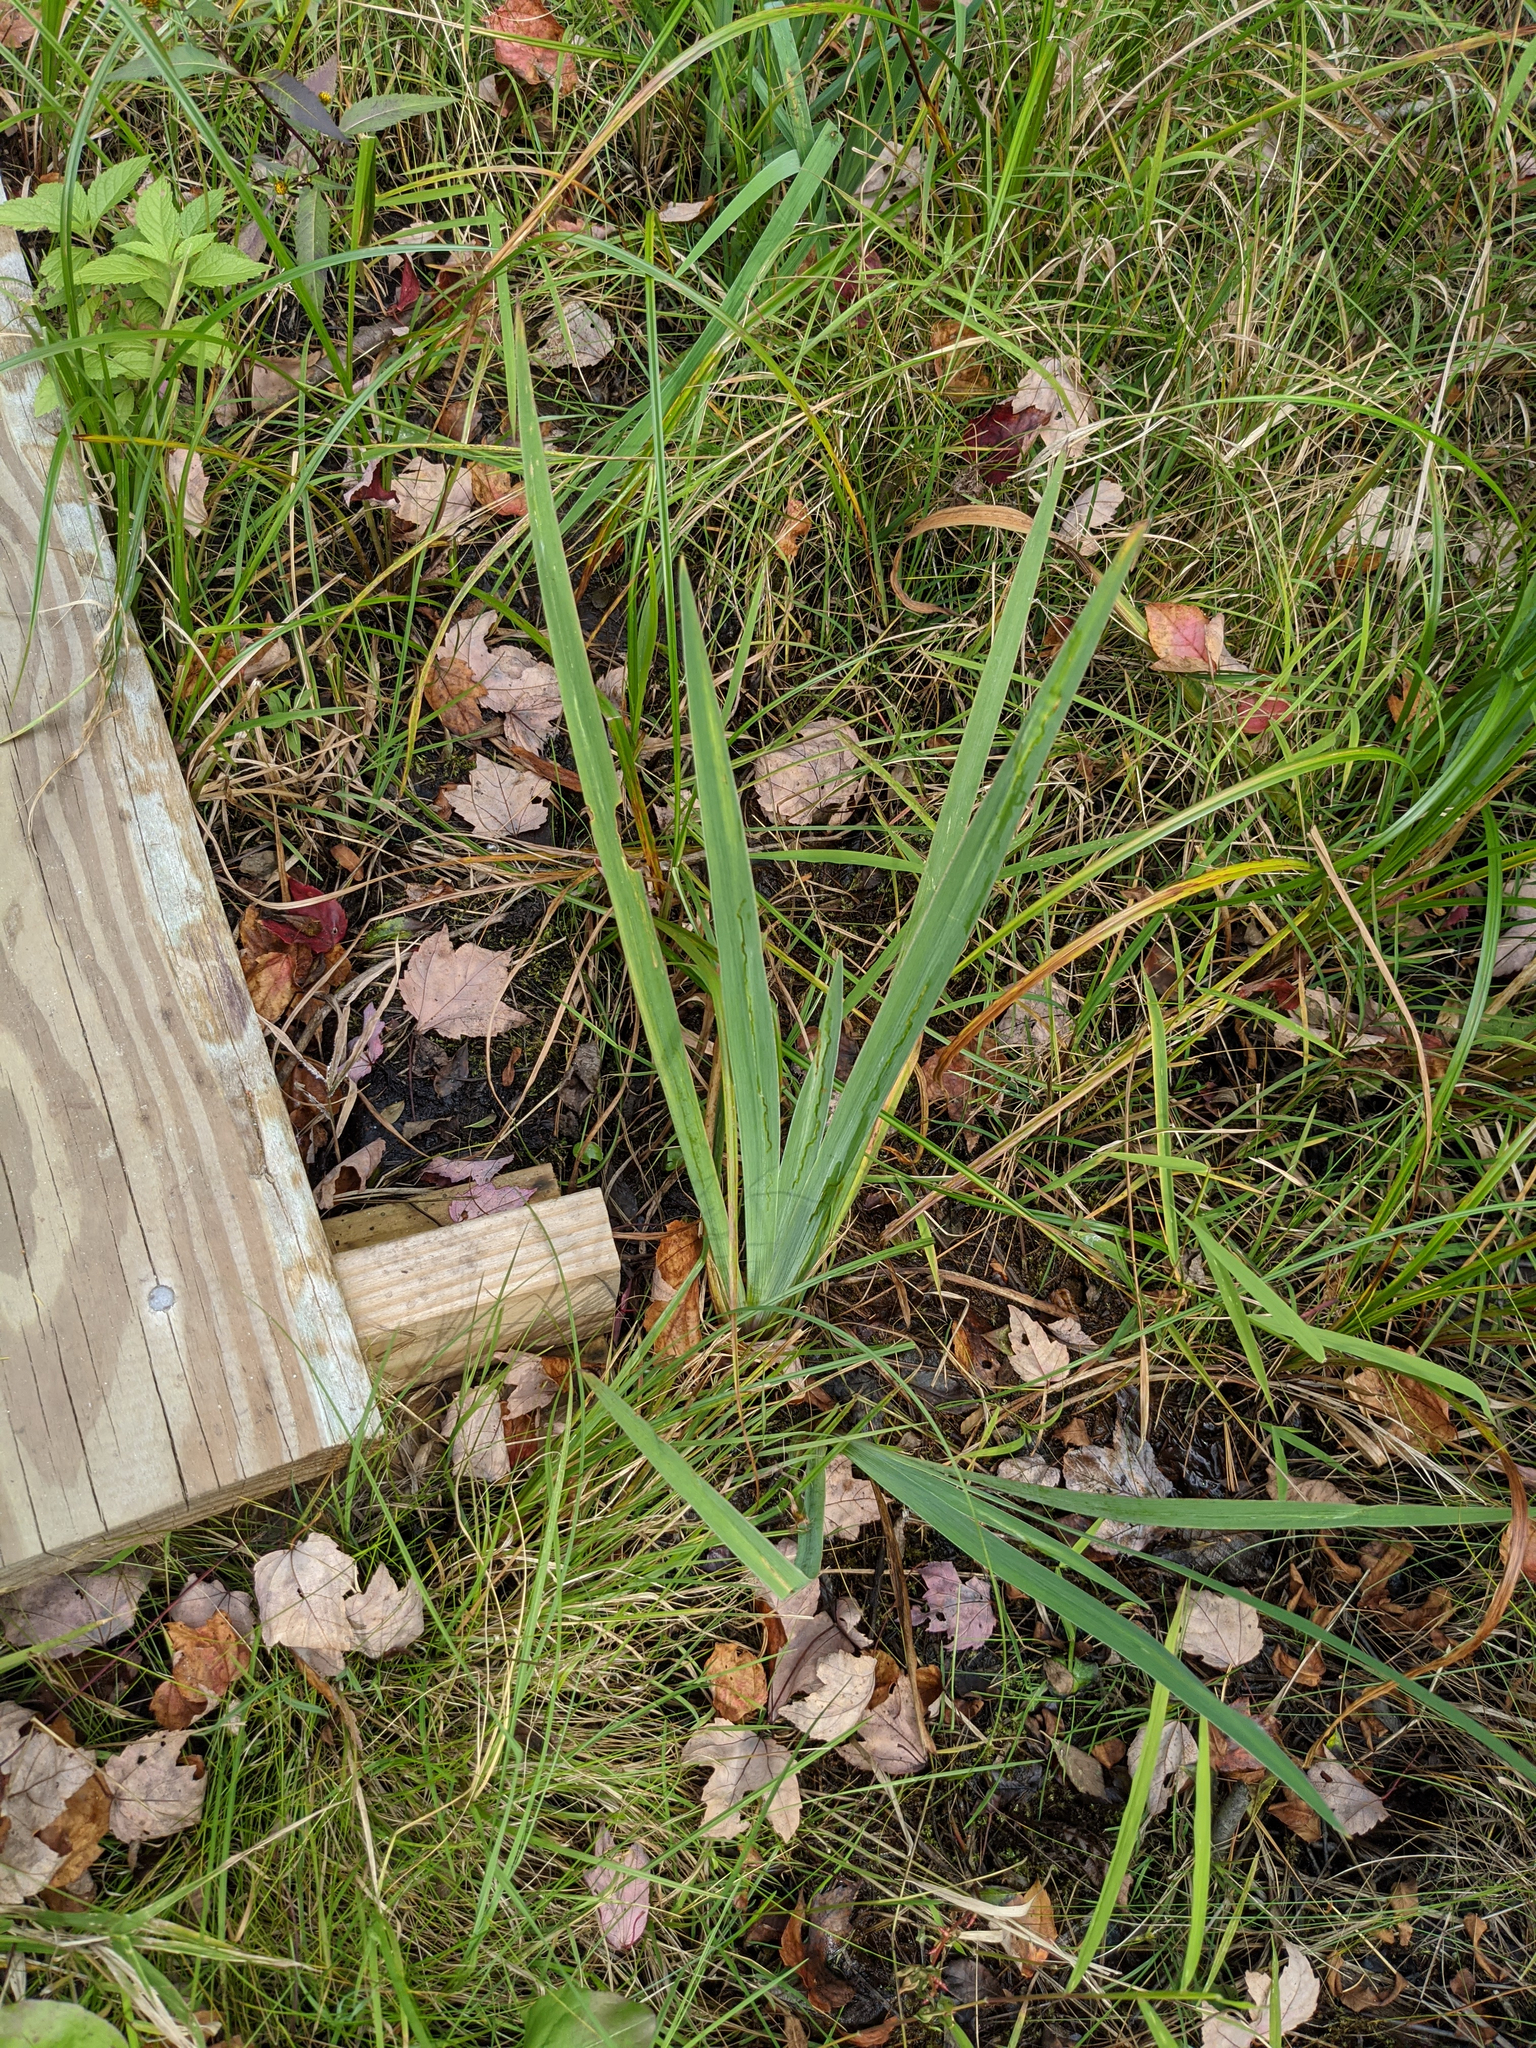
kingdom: Plantae
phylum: Tracheophyta
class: Liliopsida
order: Asparagales
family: Iridaceae
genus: Iris
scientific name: Iris versicolor
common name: Purple iris
